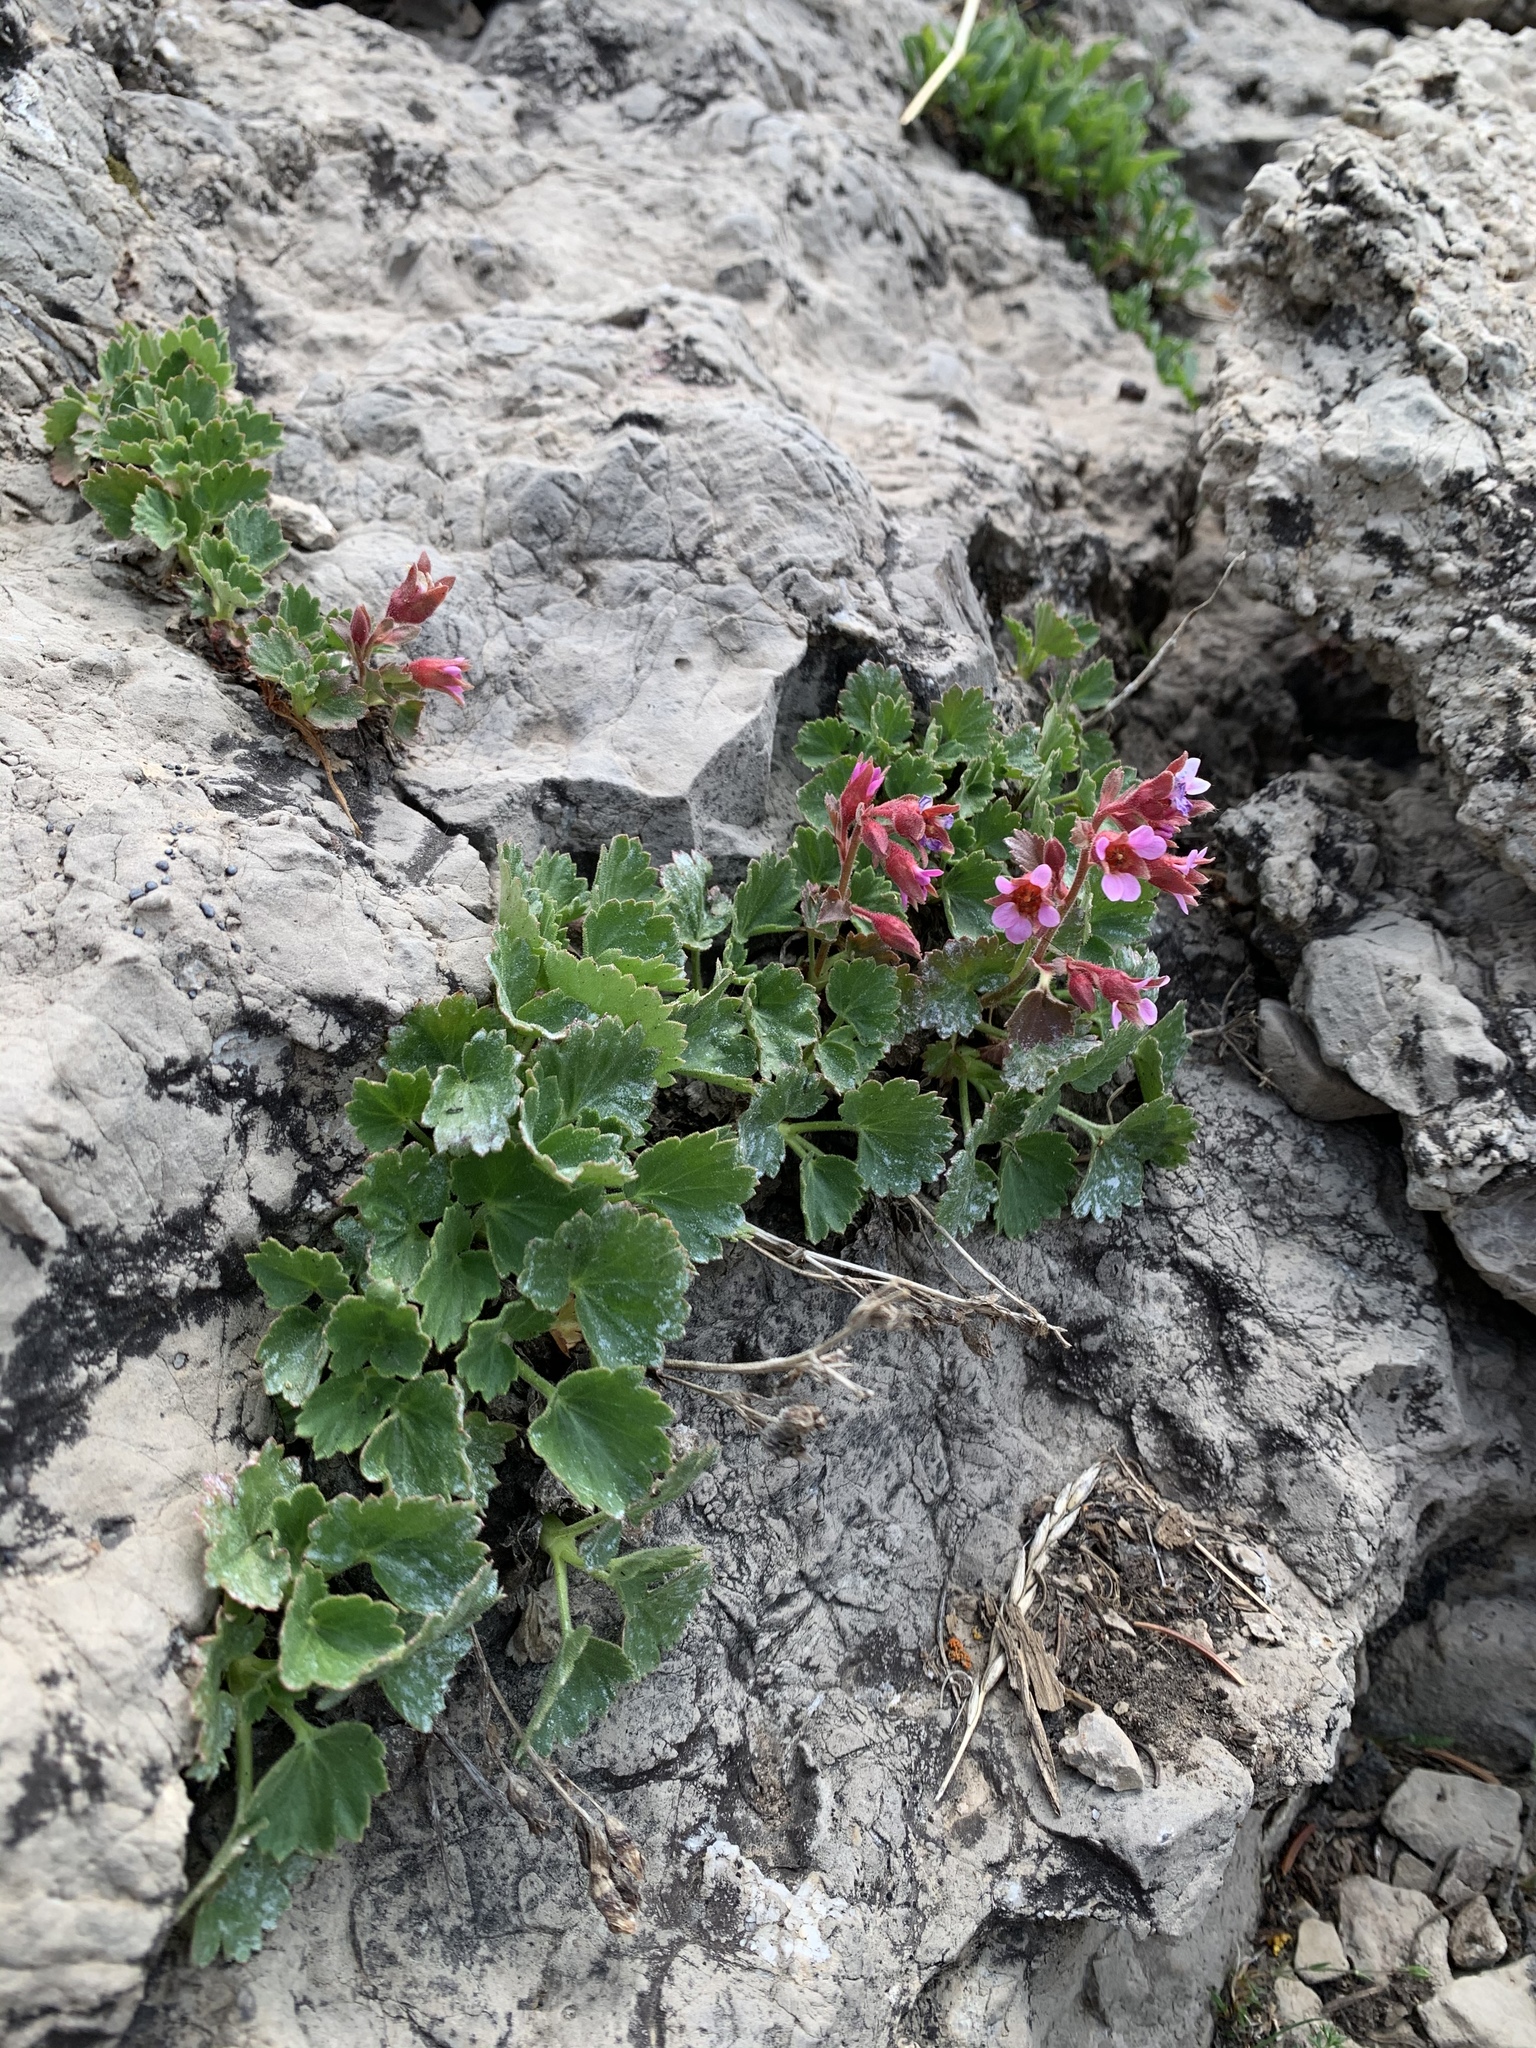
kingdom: Plantae
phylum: Tracheophyta
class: Magnoliopsida
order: Saxifragales
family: Saxifragaceae
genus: Telesonix
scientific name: Telesonix heucheriformis
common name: Alumroot brookfoam
